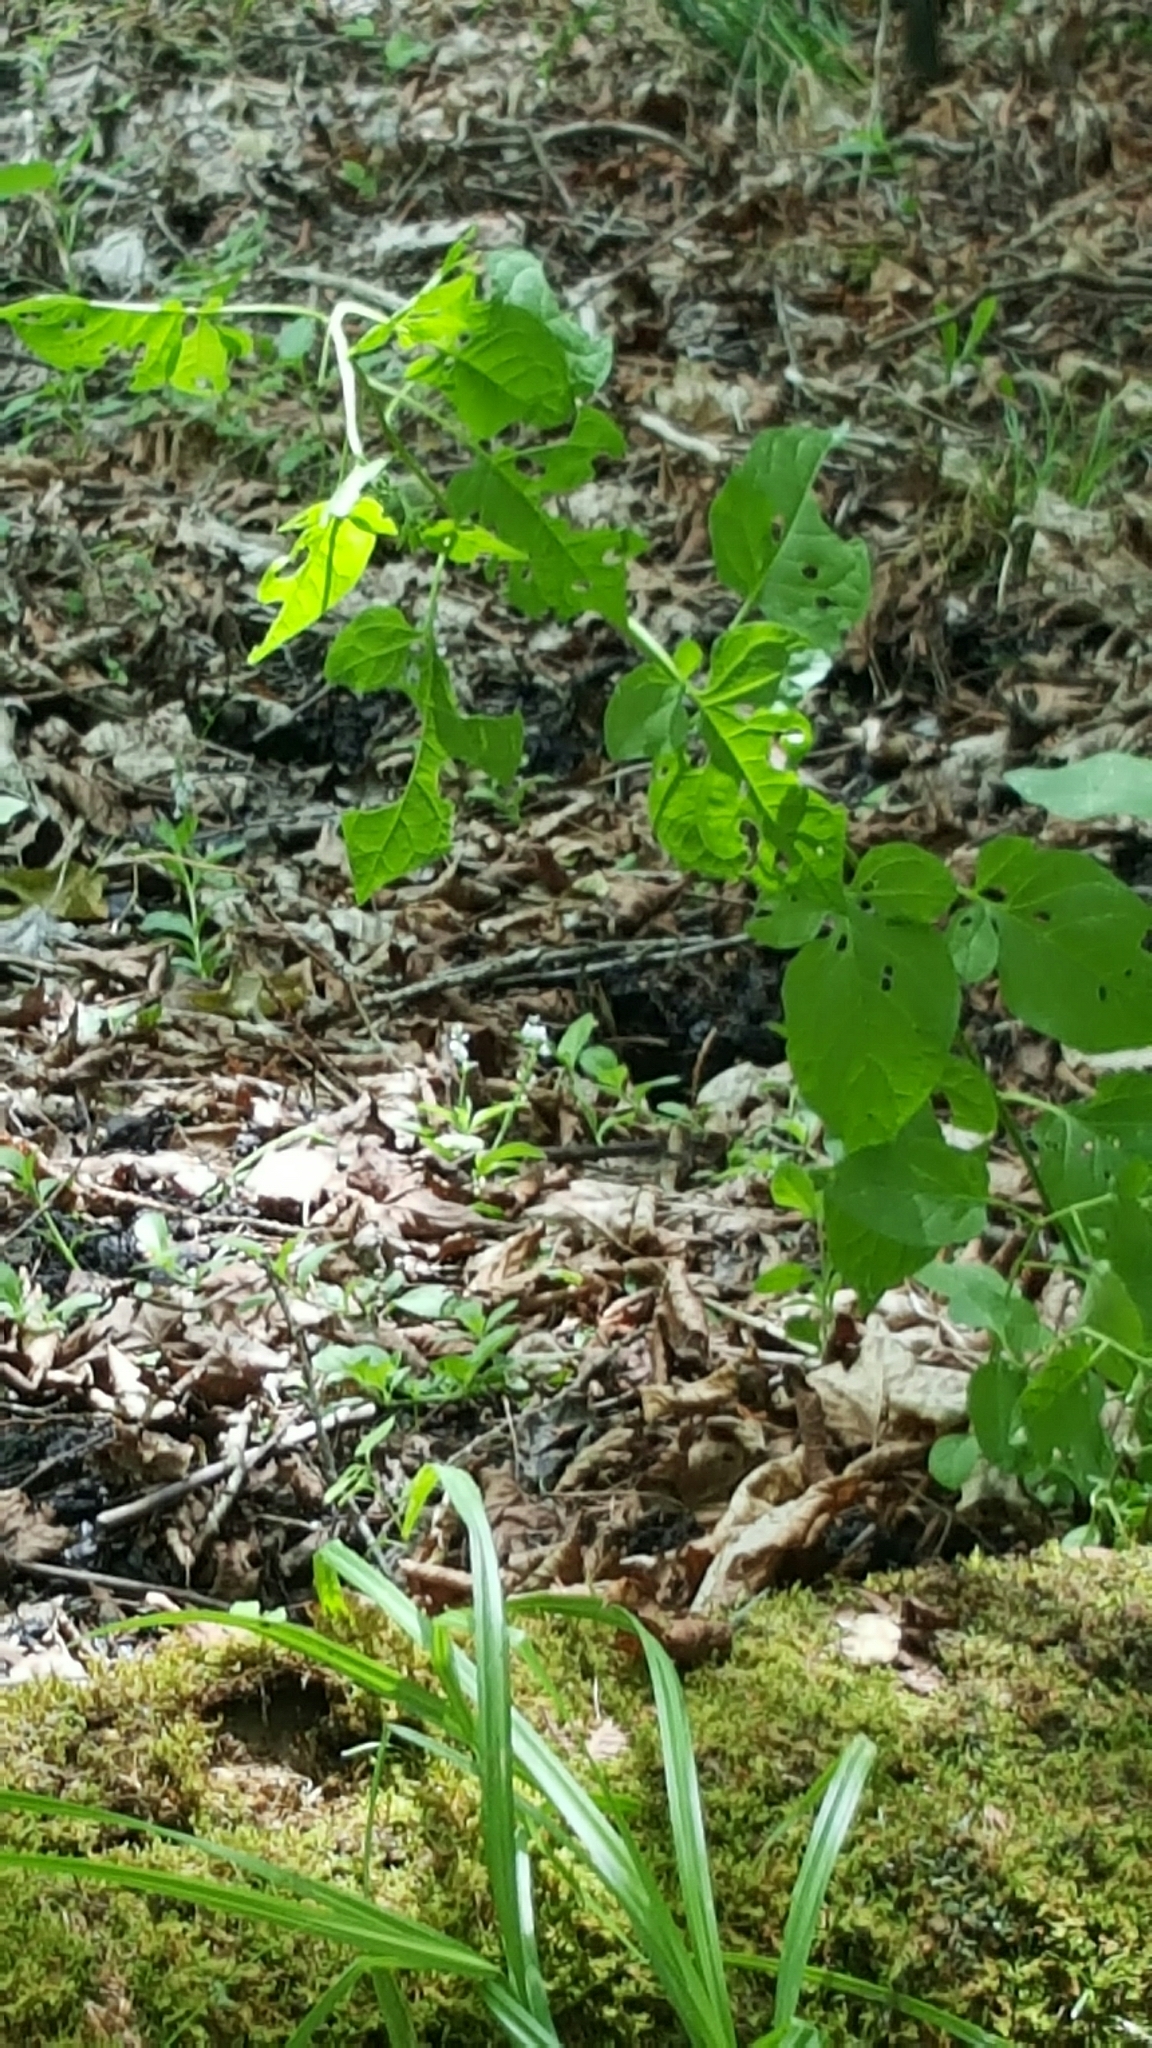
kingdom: Plantae
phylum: Tracheophyta
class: Magnoliopsida
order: Solanales
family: Solanaceae
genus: Solanum
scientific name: Solanum dulcamara
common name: Climbing nightshade
